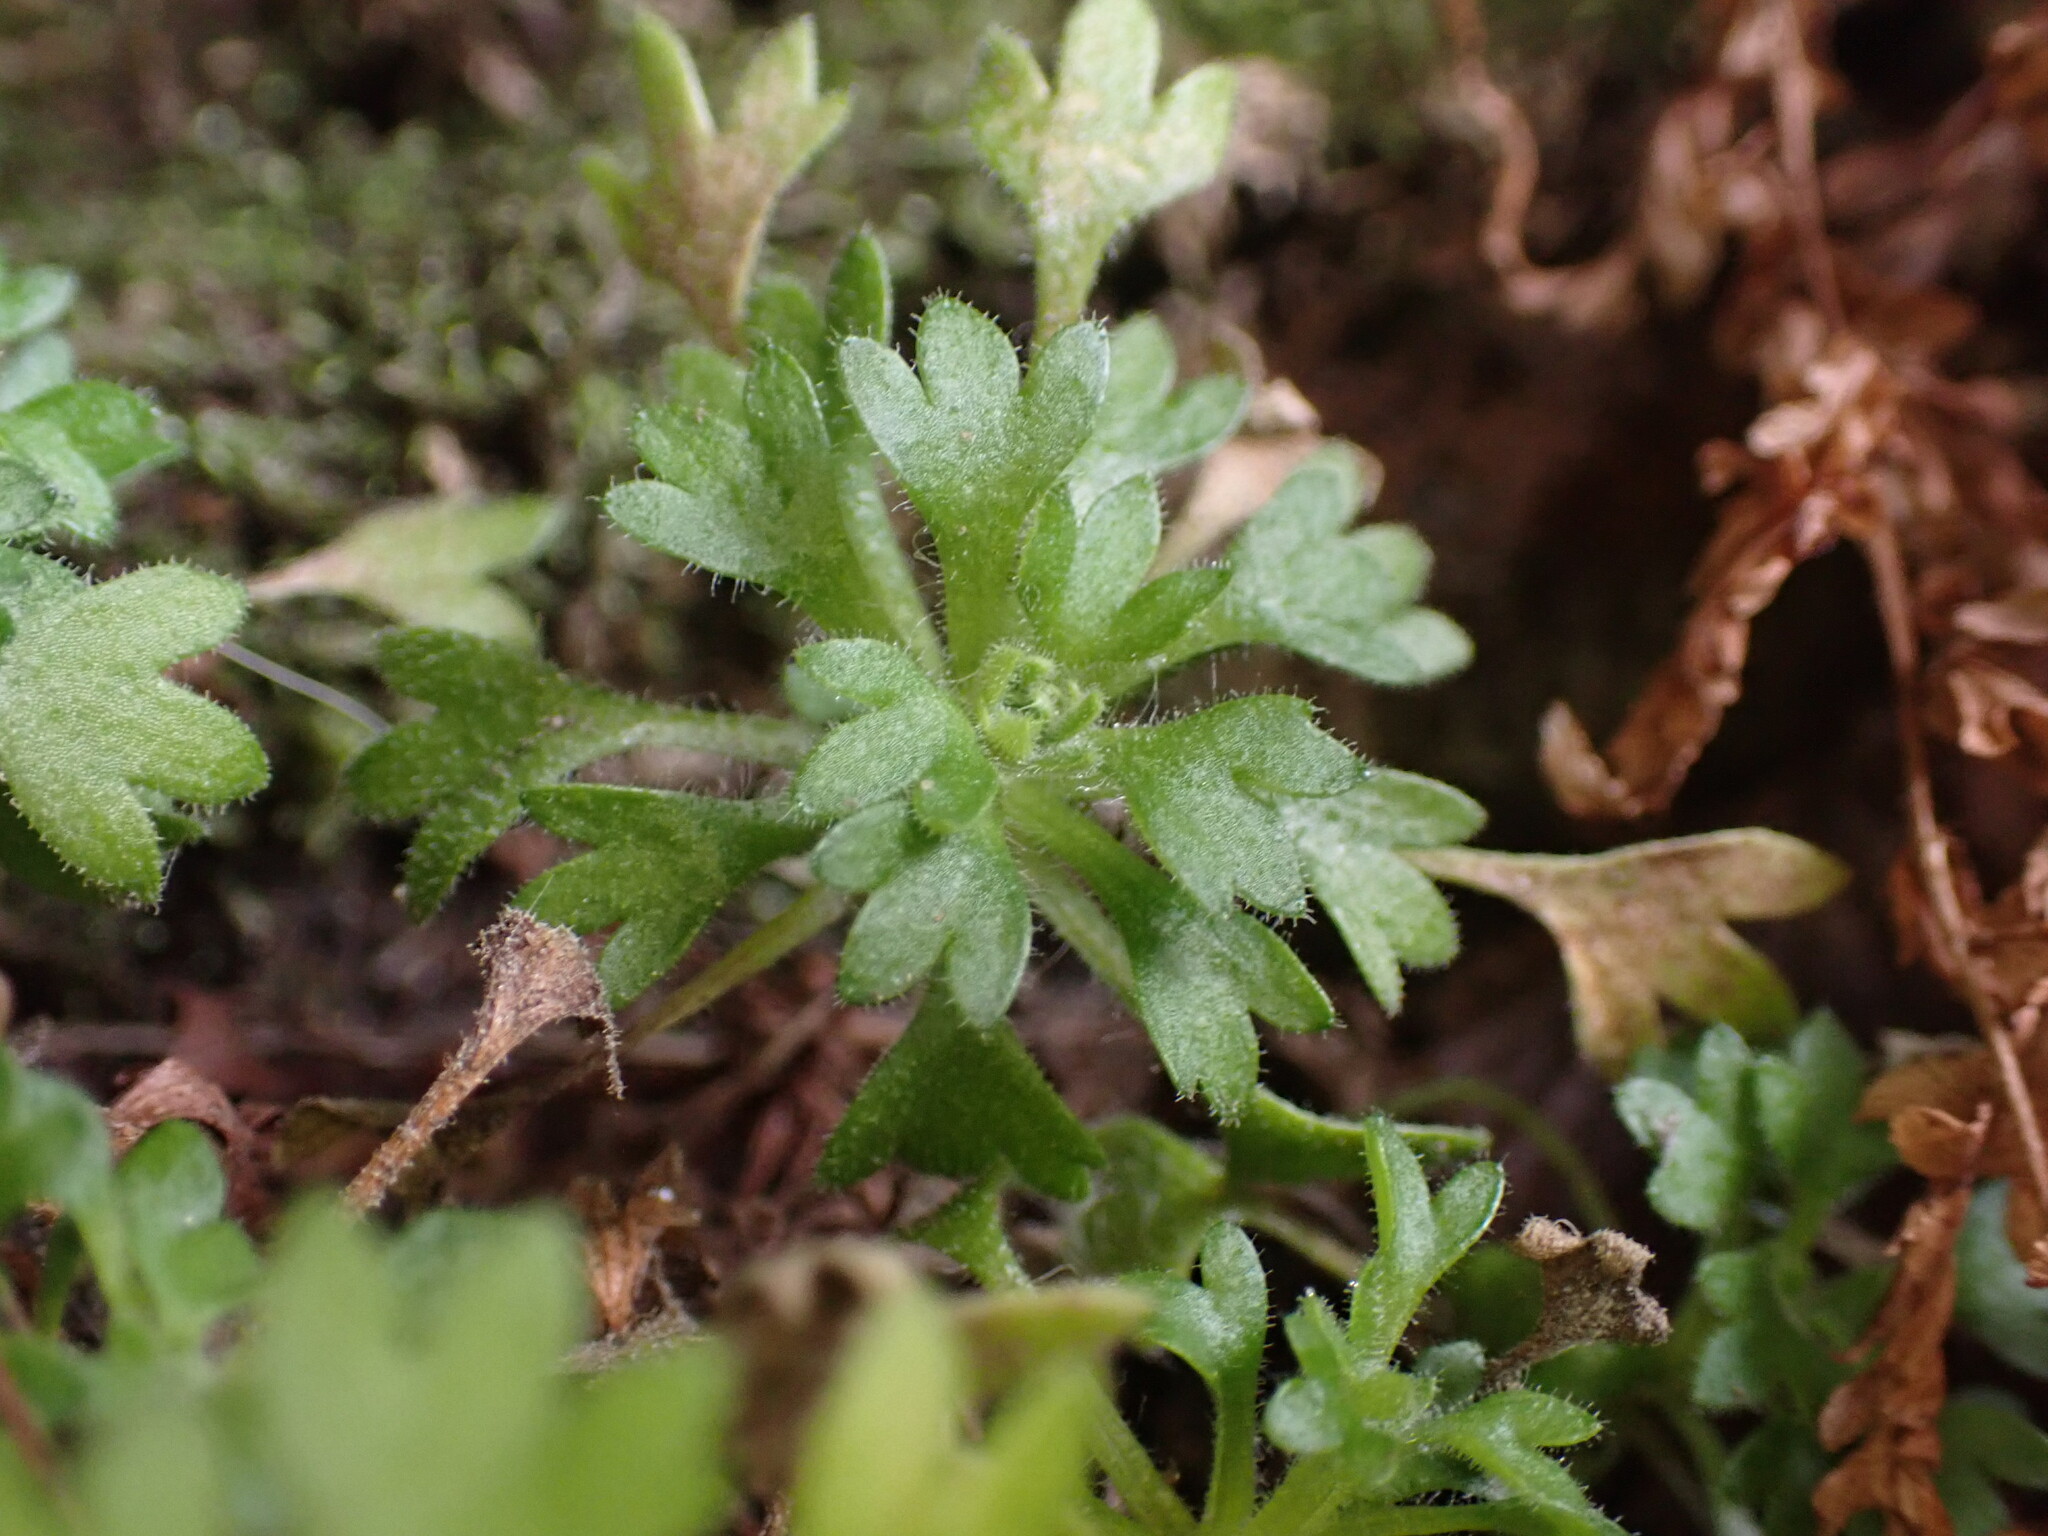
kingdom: Plantae
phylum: Tracheophyta
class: Magnoliopsida
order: Saxifragales
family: Saxifragaceae
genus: Saxifraga
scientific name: Saxifraga pedemontana
